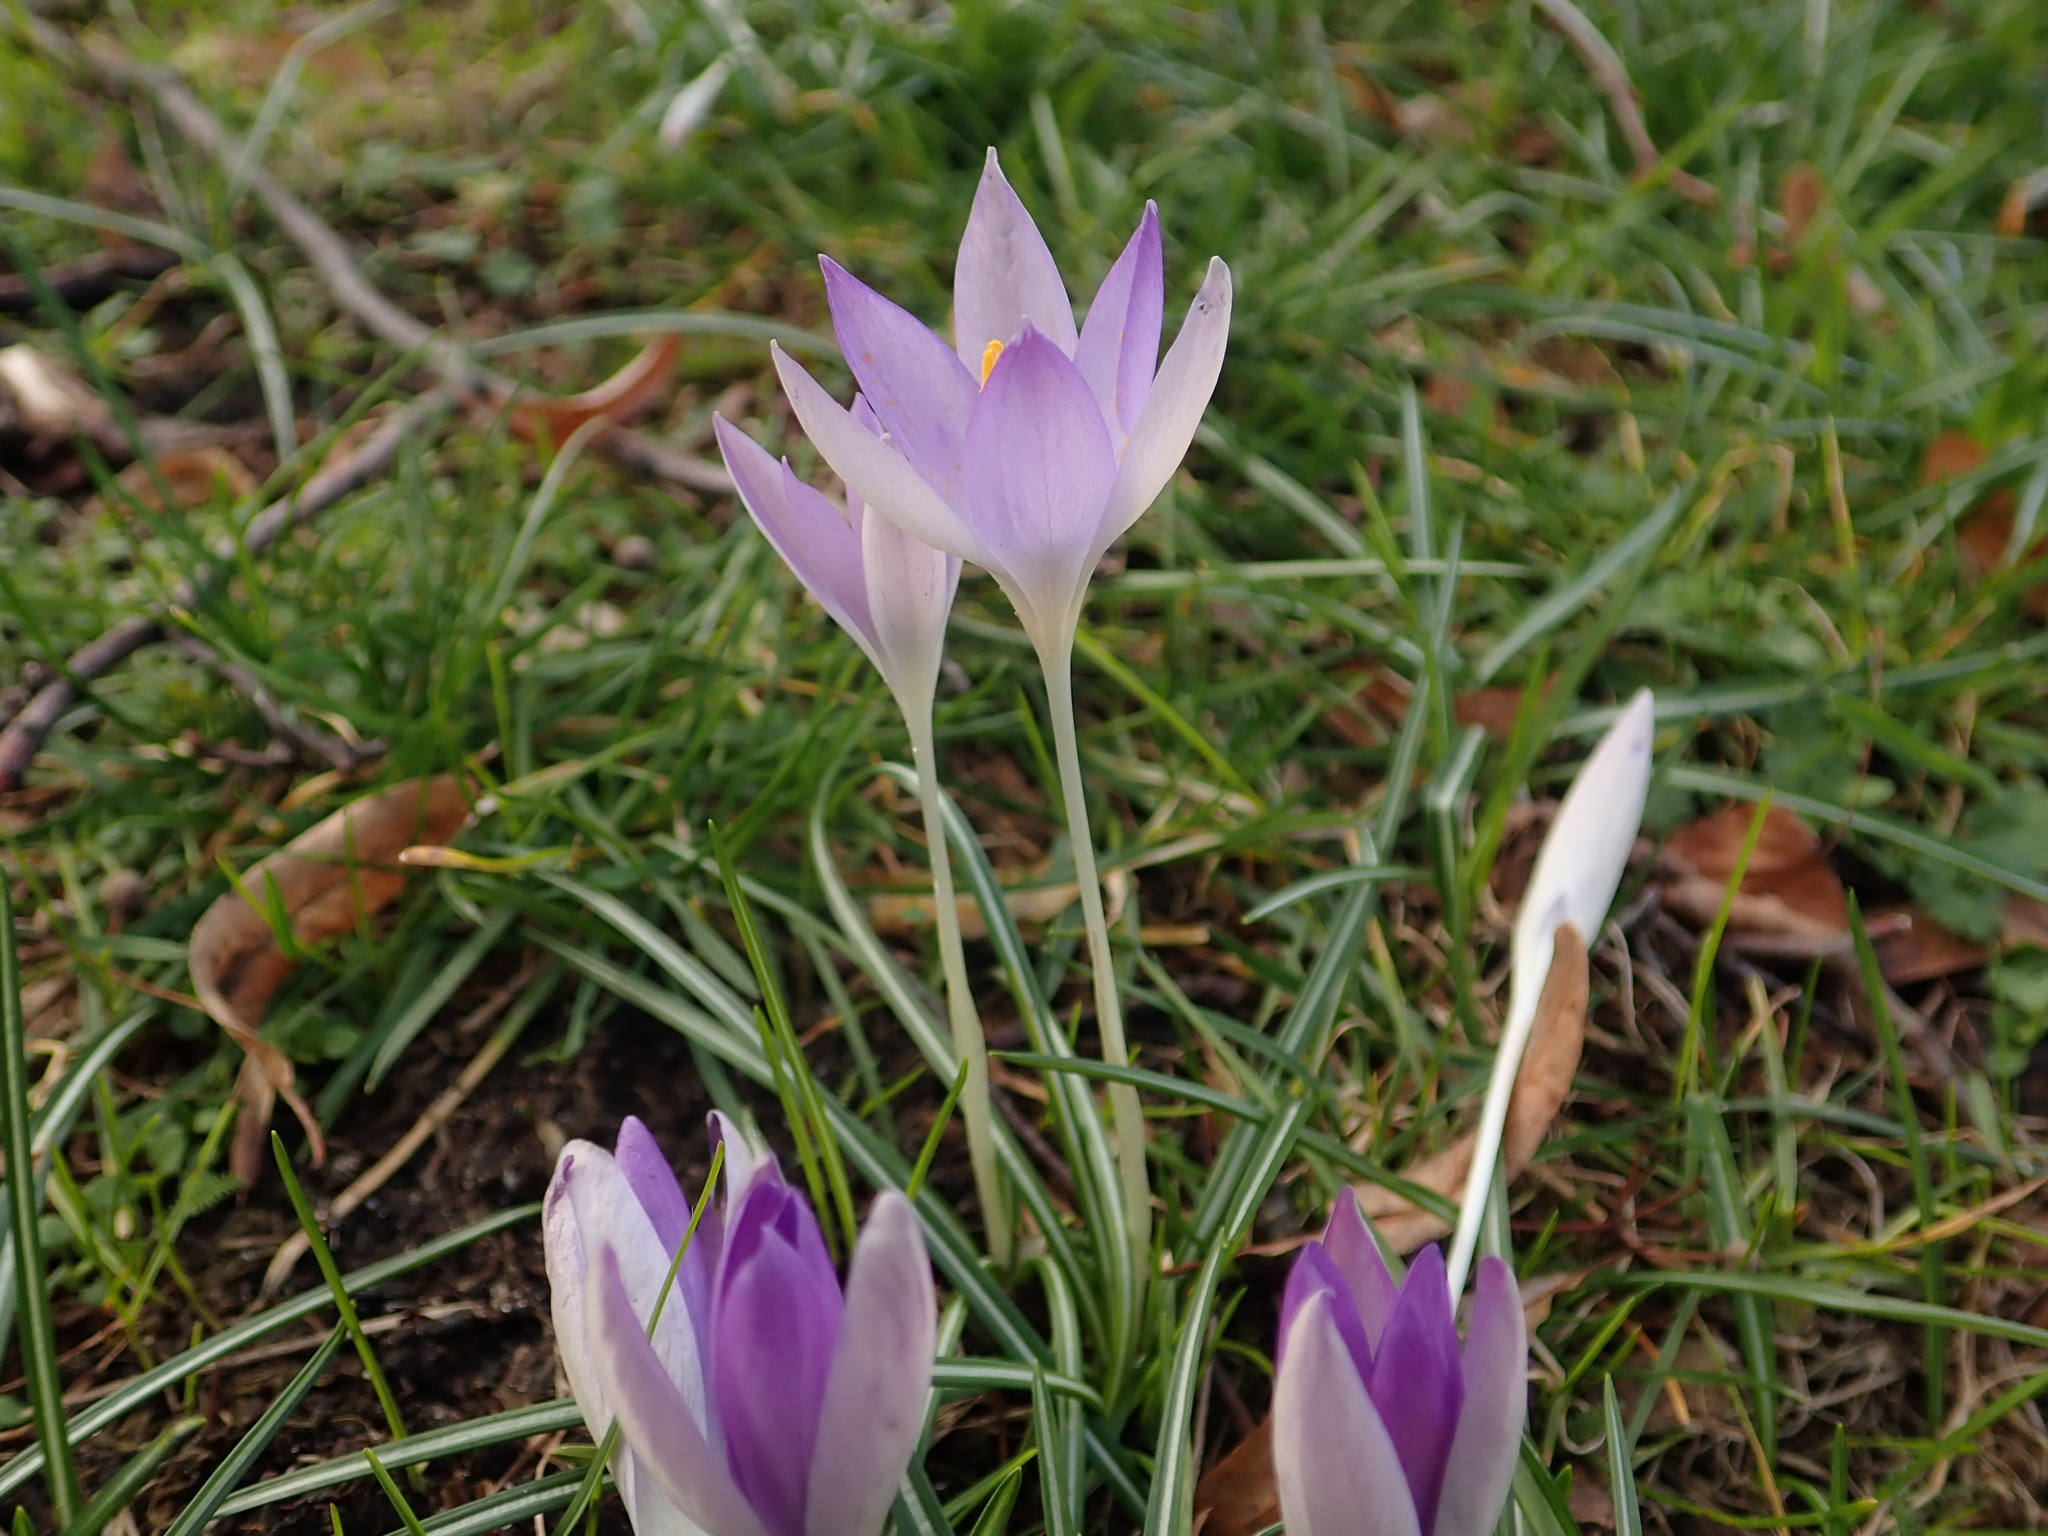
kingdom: Plantae
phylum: Tracheophyta
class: Liliopsida
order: Asparagales
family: Iridaceae
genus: Crocus
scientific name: Crocus tommasinianus
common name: Early crocus
